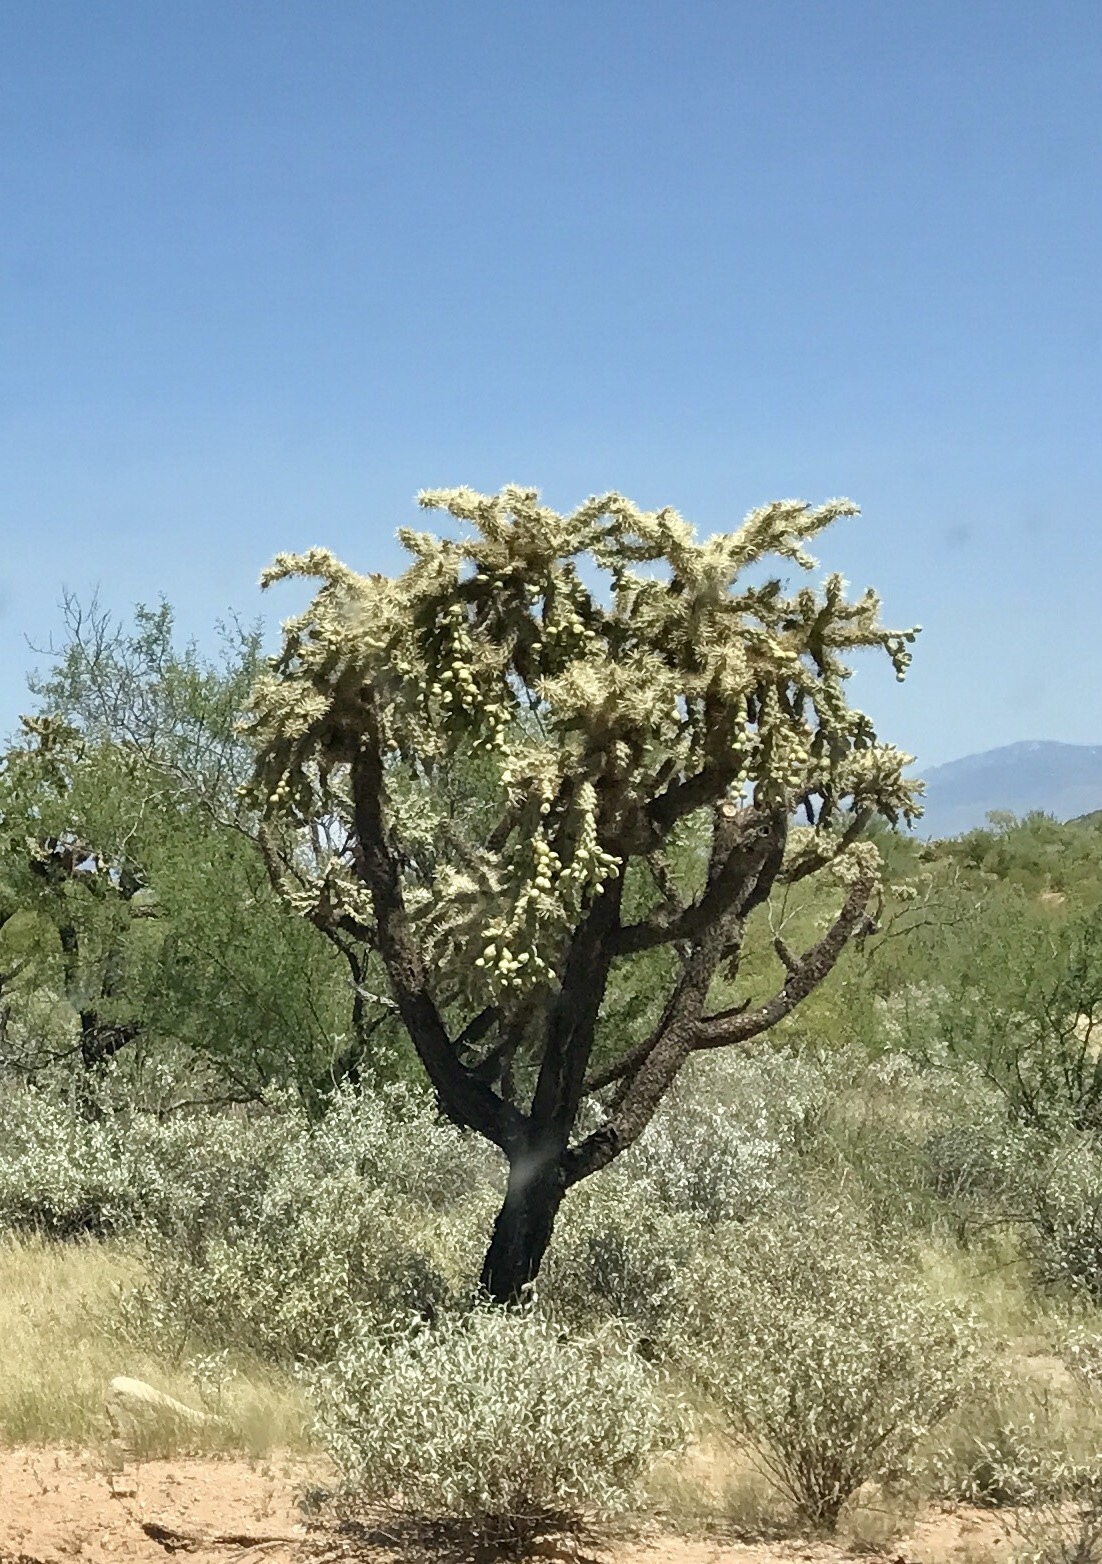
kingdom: Plantae
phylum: Tracheophyta
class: Magnoliopsida
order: Caryophyllales
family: Cactaceae
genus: Cylindropuntia
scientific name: Cylindropuntia fulgida
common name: Jumping cholla
